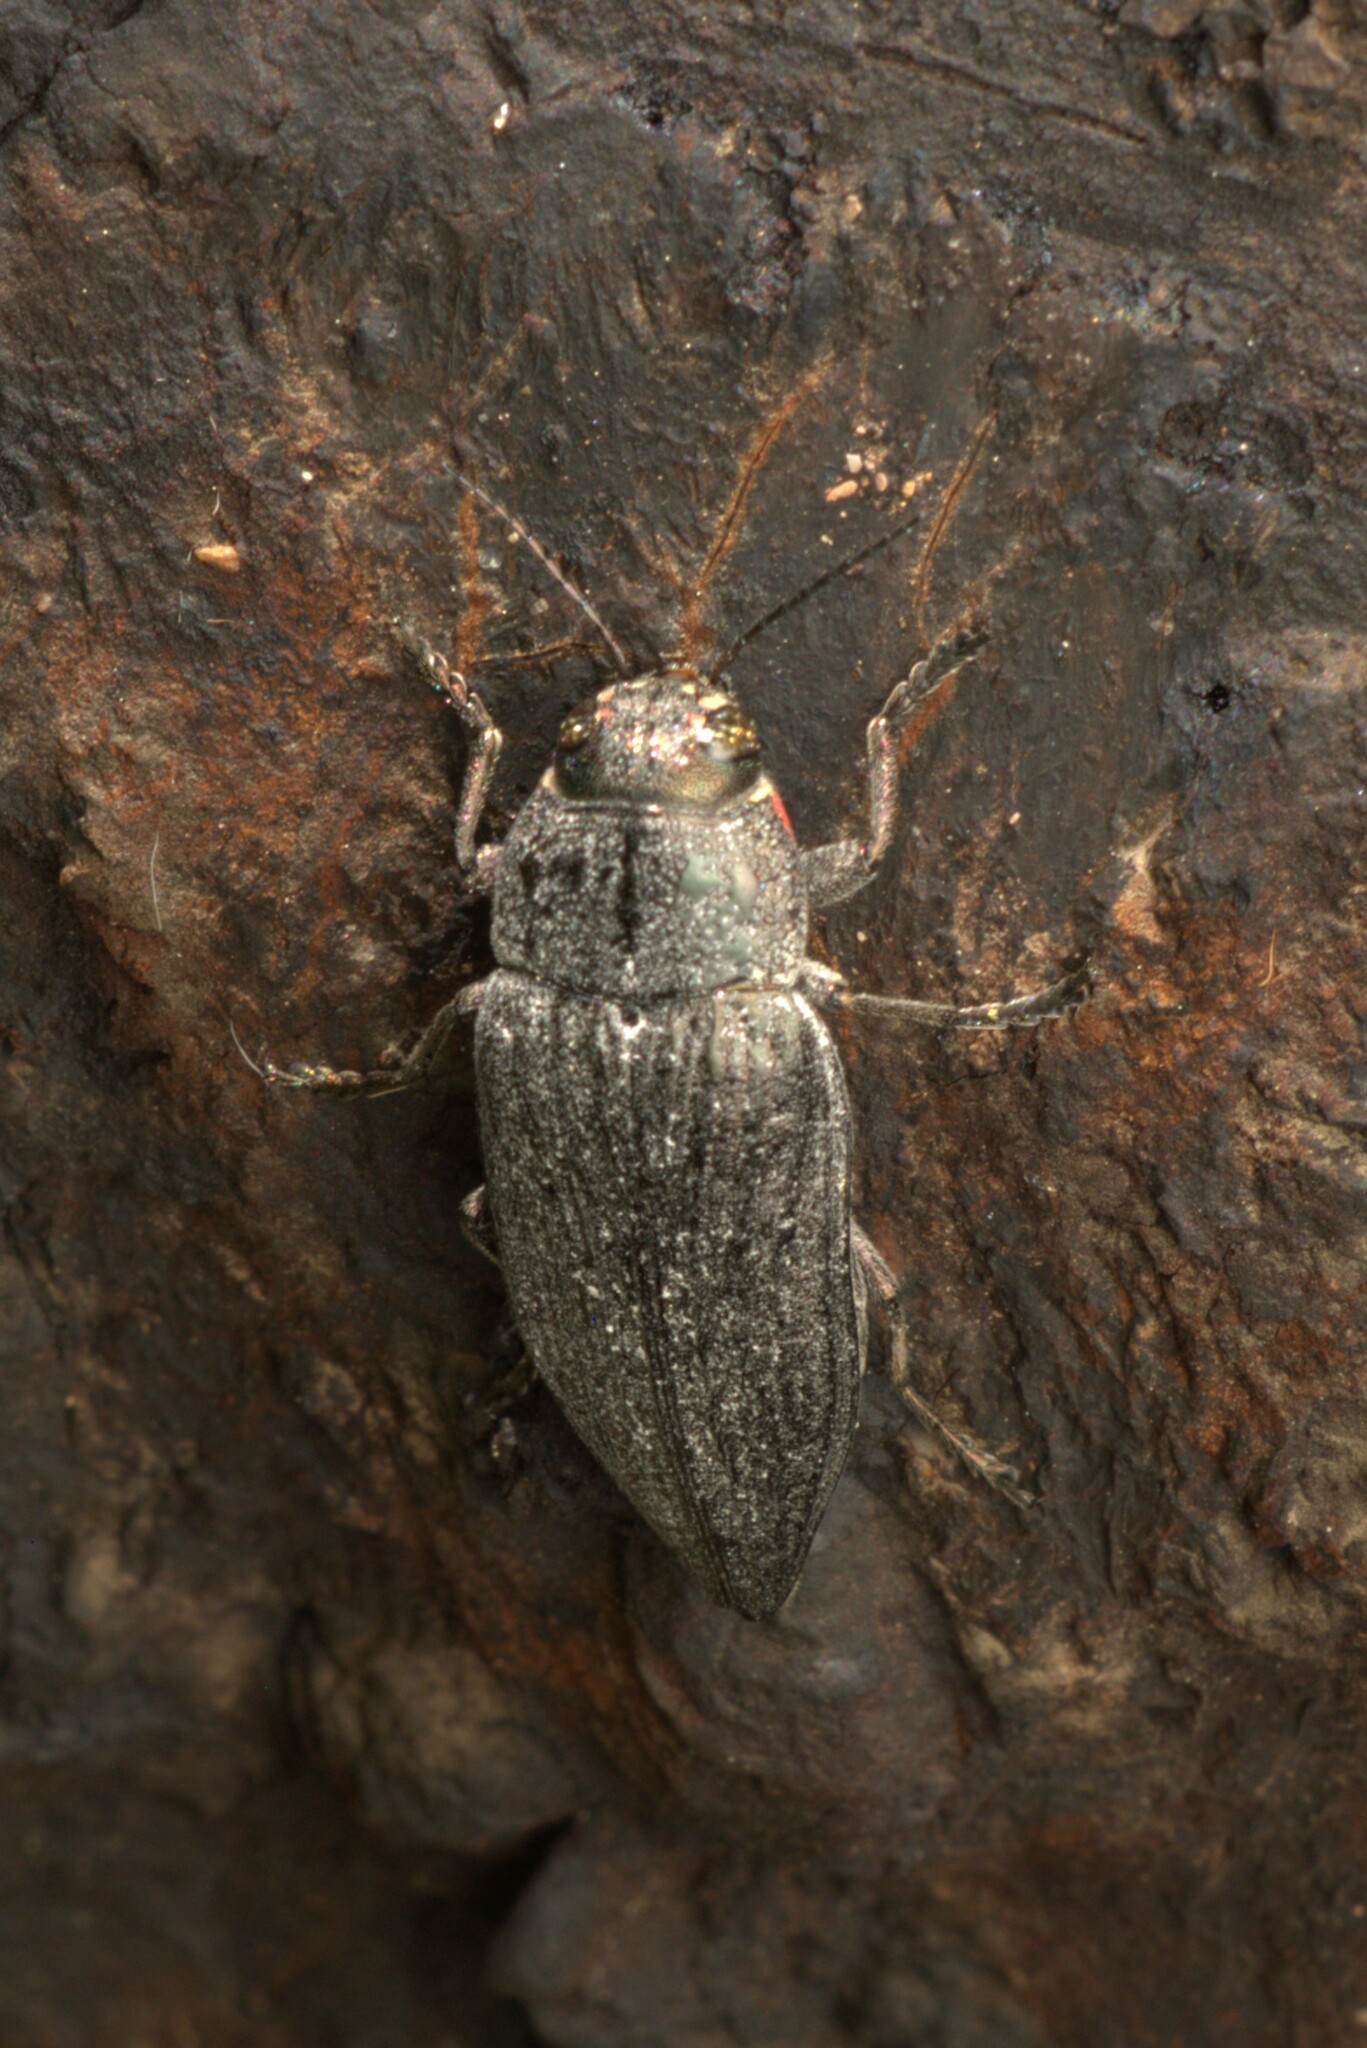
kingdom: Animalia
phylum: Arthropoda
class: Insecta
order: Coleoptera
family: Buprestidae
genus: Buprestis
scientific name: Buprestis lyrata
